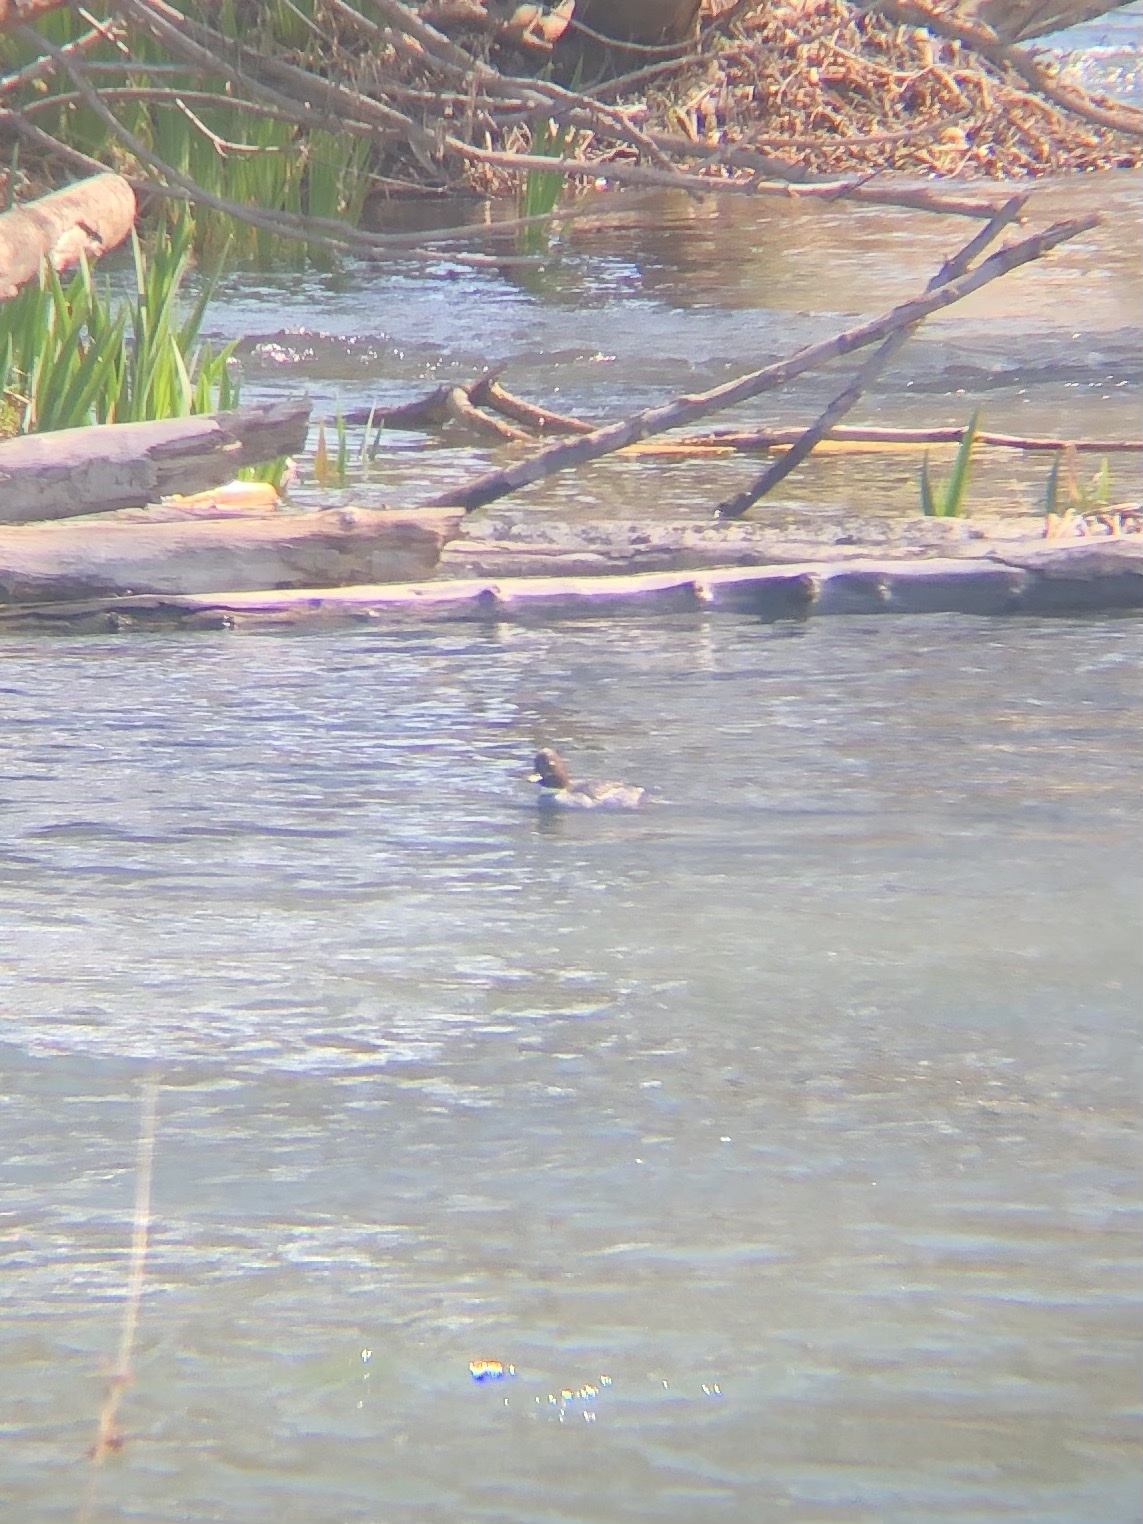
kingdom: Animalia
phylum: Chordata
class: Aves
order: Anseriformes
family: Anatidae
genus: Bucephala
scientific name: Bucephala clangula
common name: Common goldeneye
